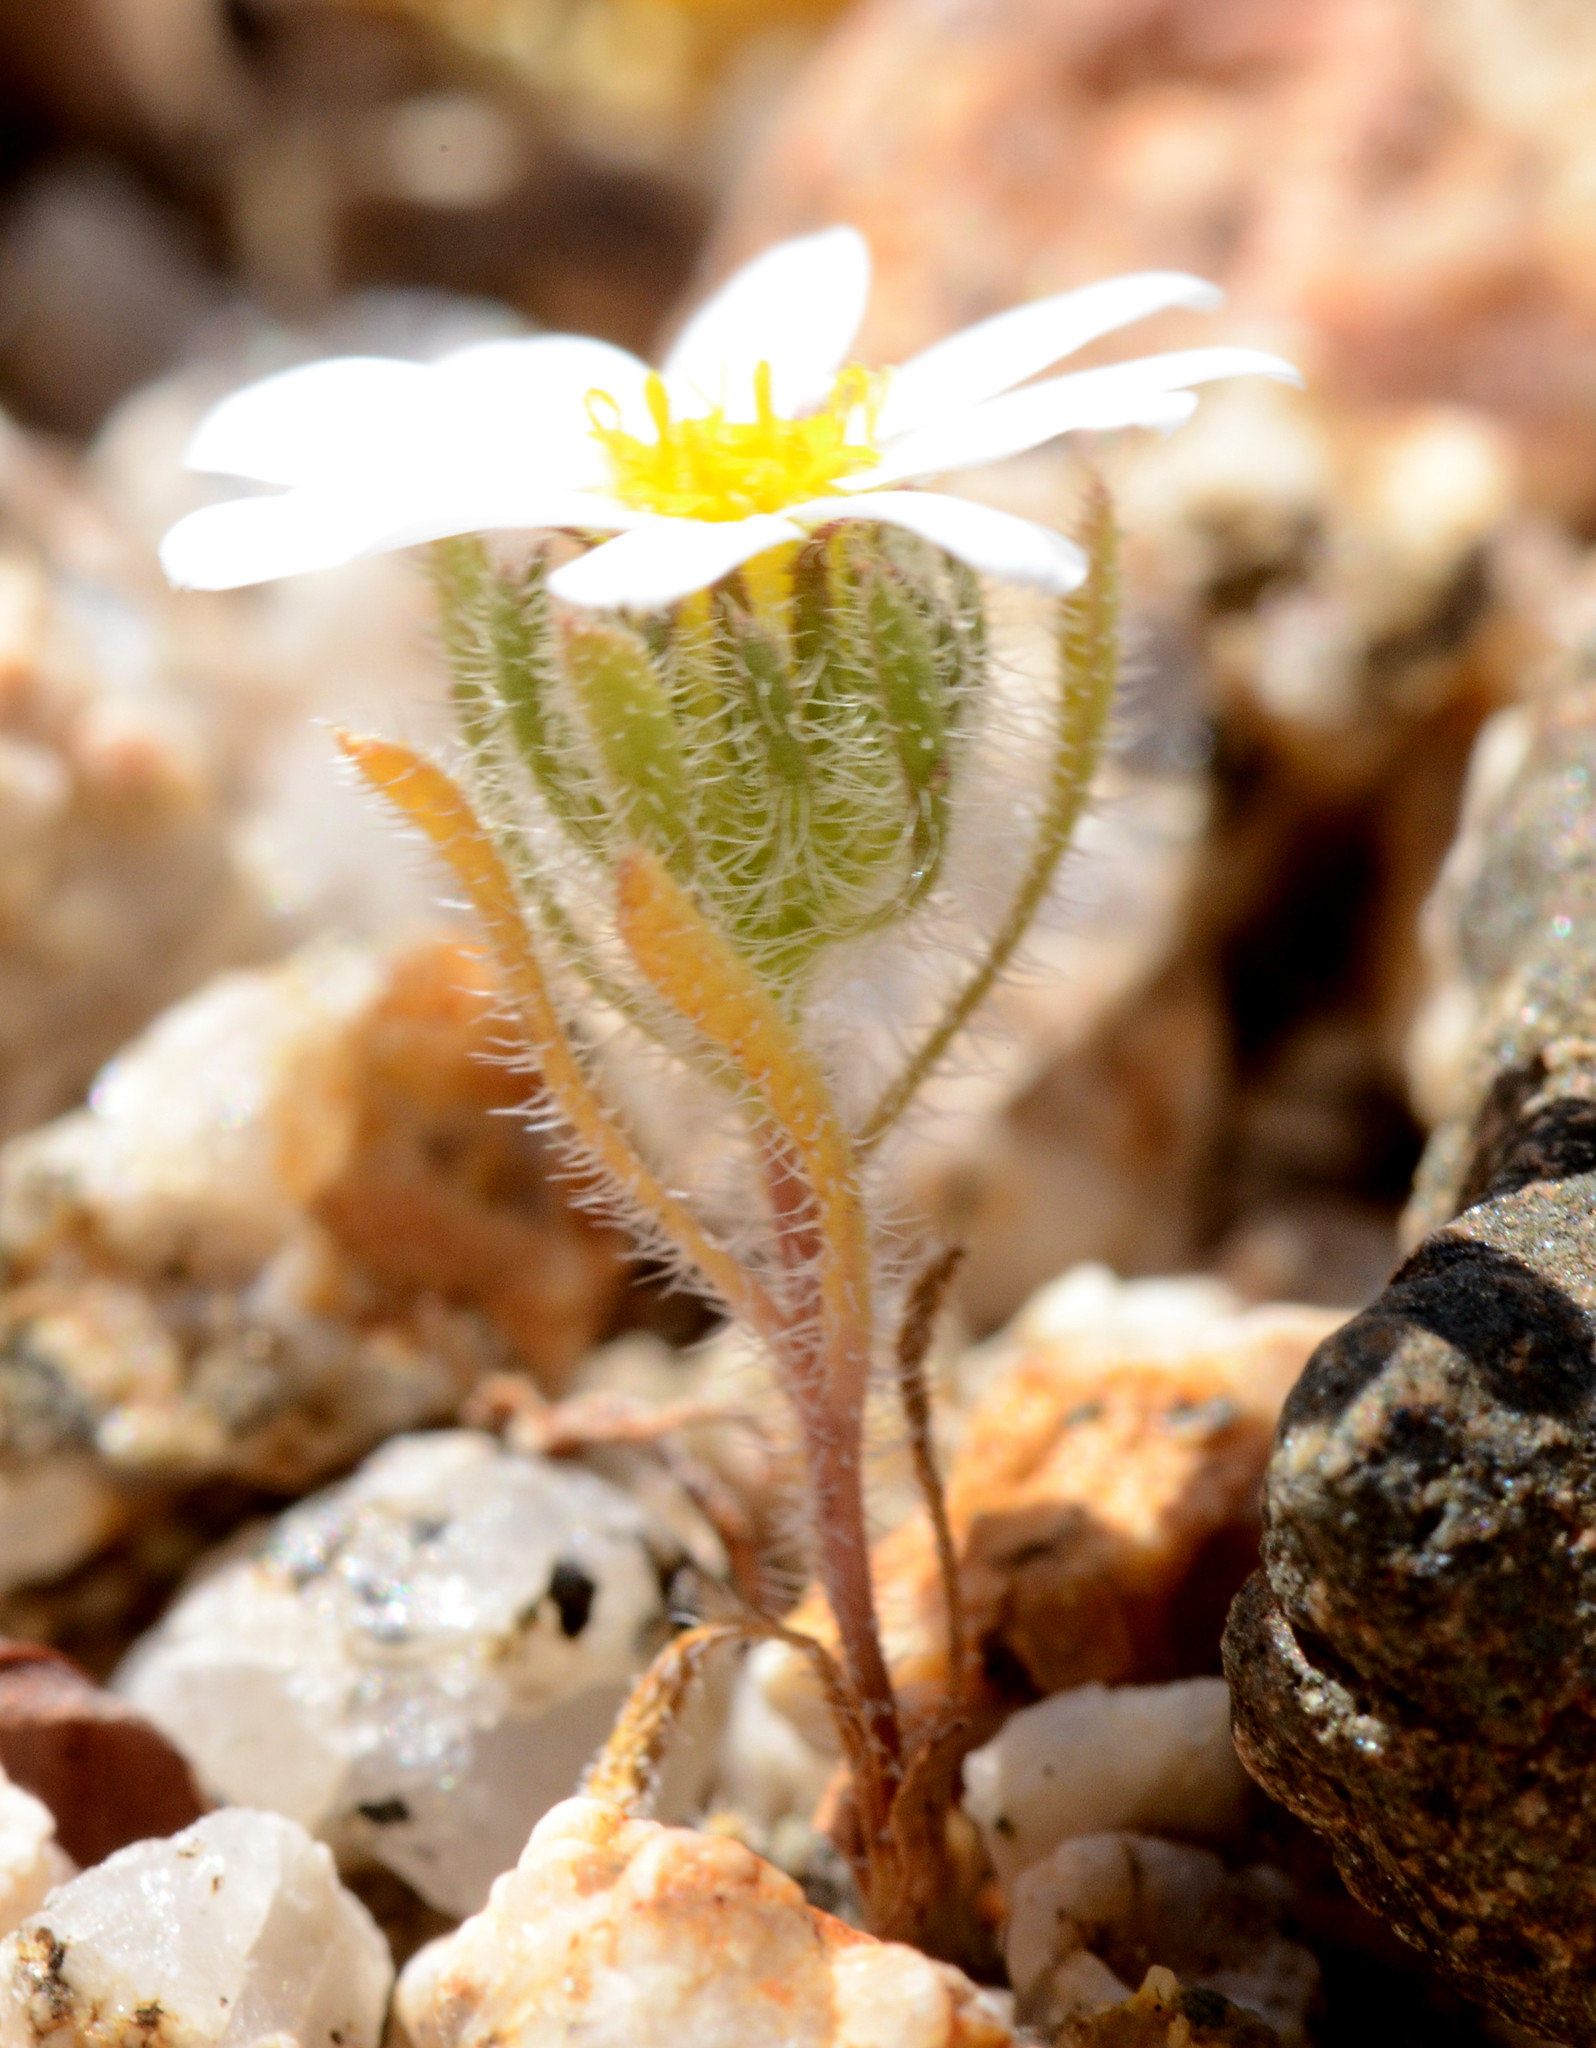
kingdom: Plantae
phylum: Tracheophyta
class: Magnoliopsida
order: Asterales
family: Asteraceae
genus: Monoptilon
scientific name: Monoptilon bellioides
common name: Bristly desertstar
